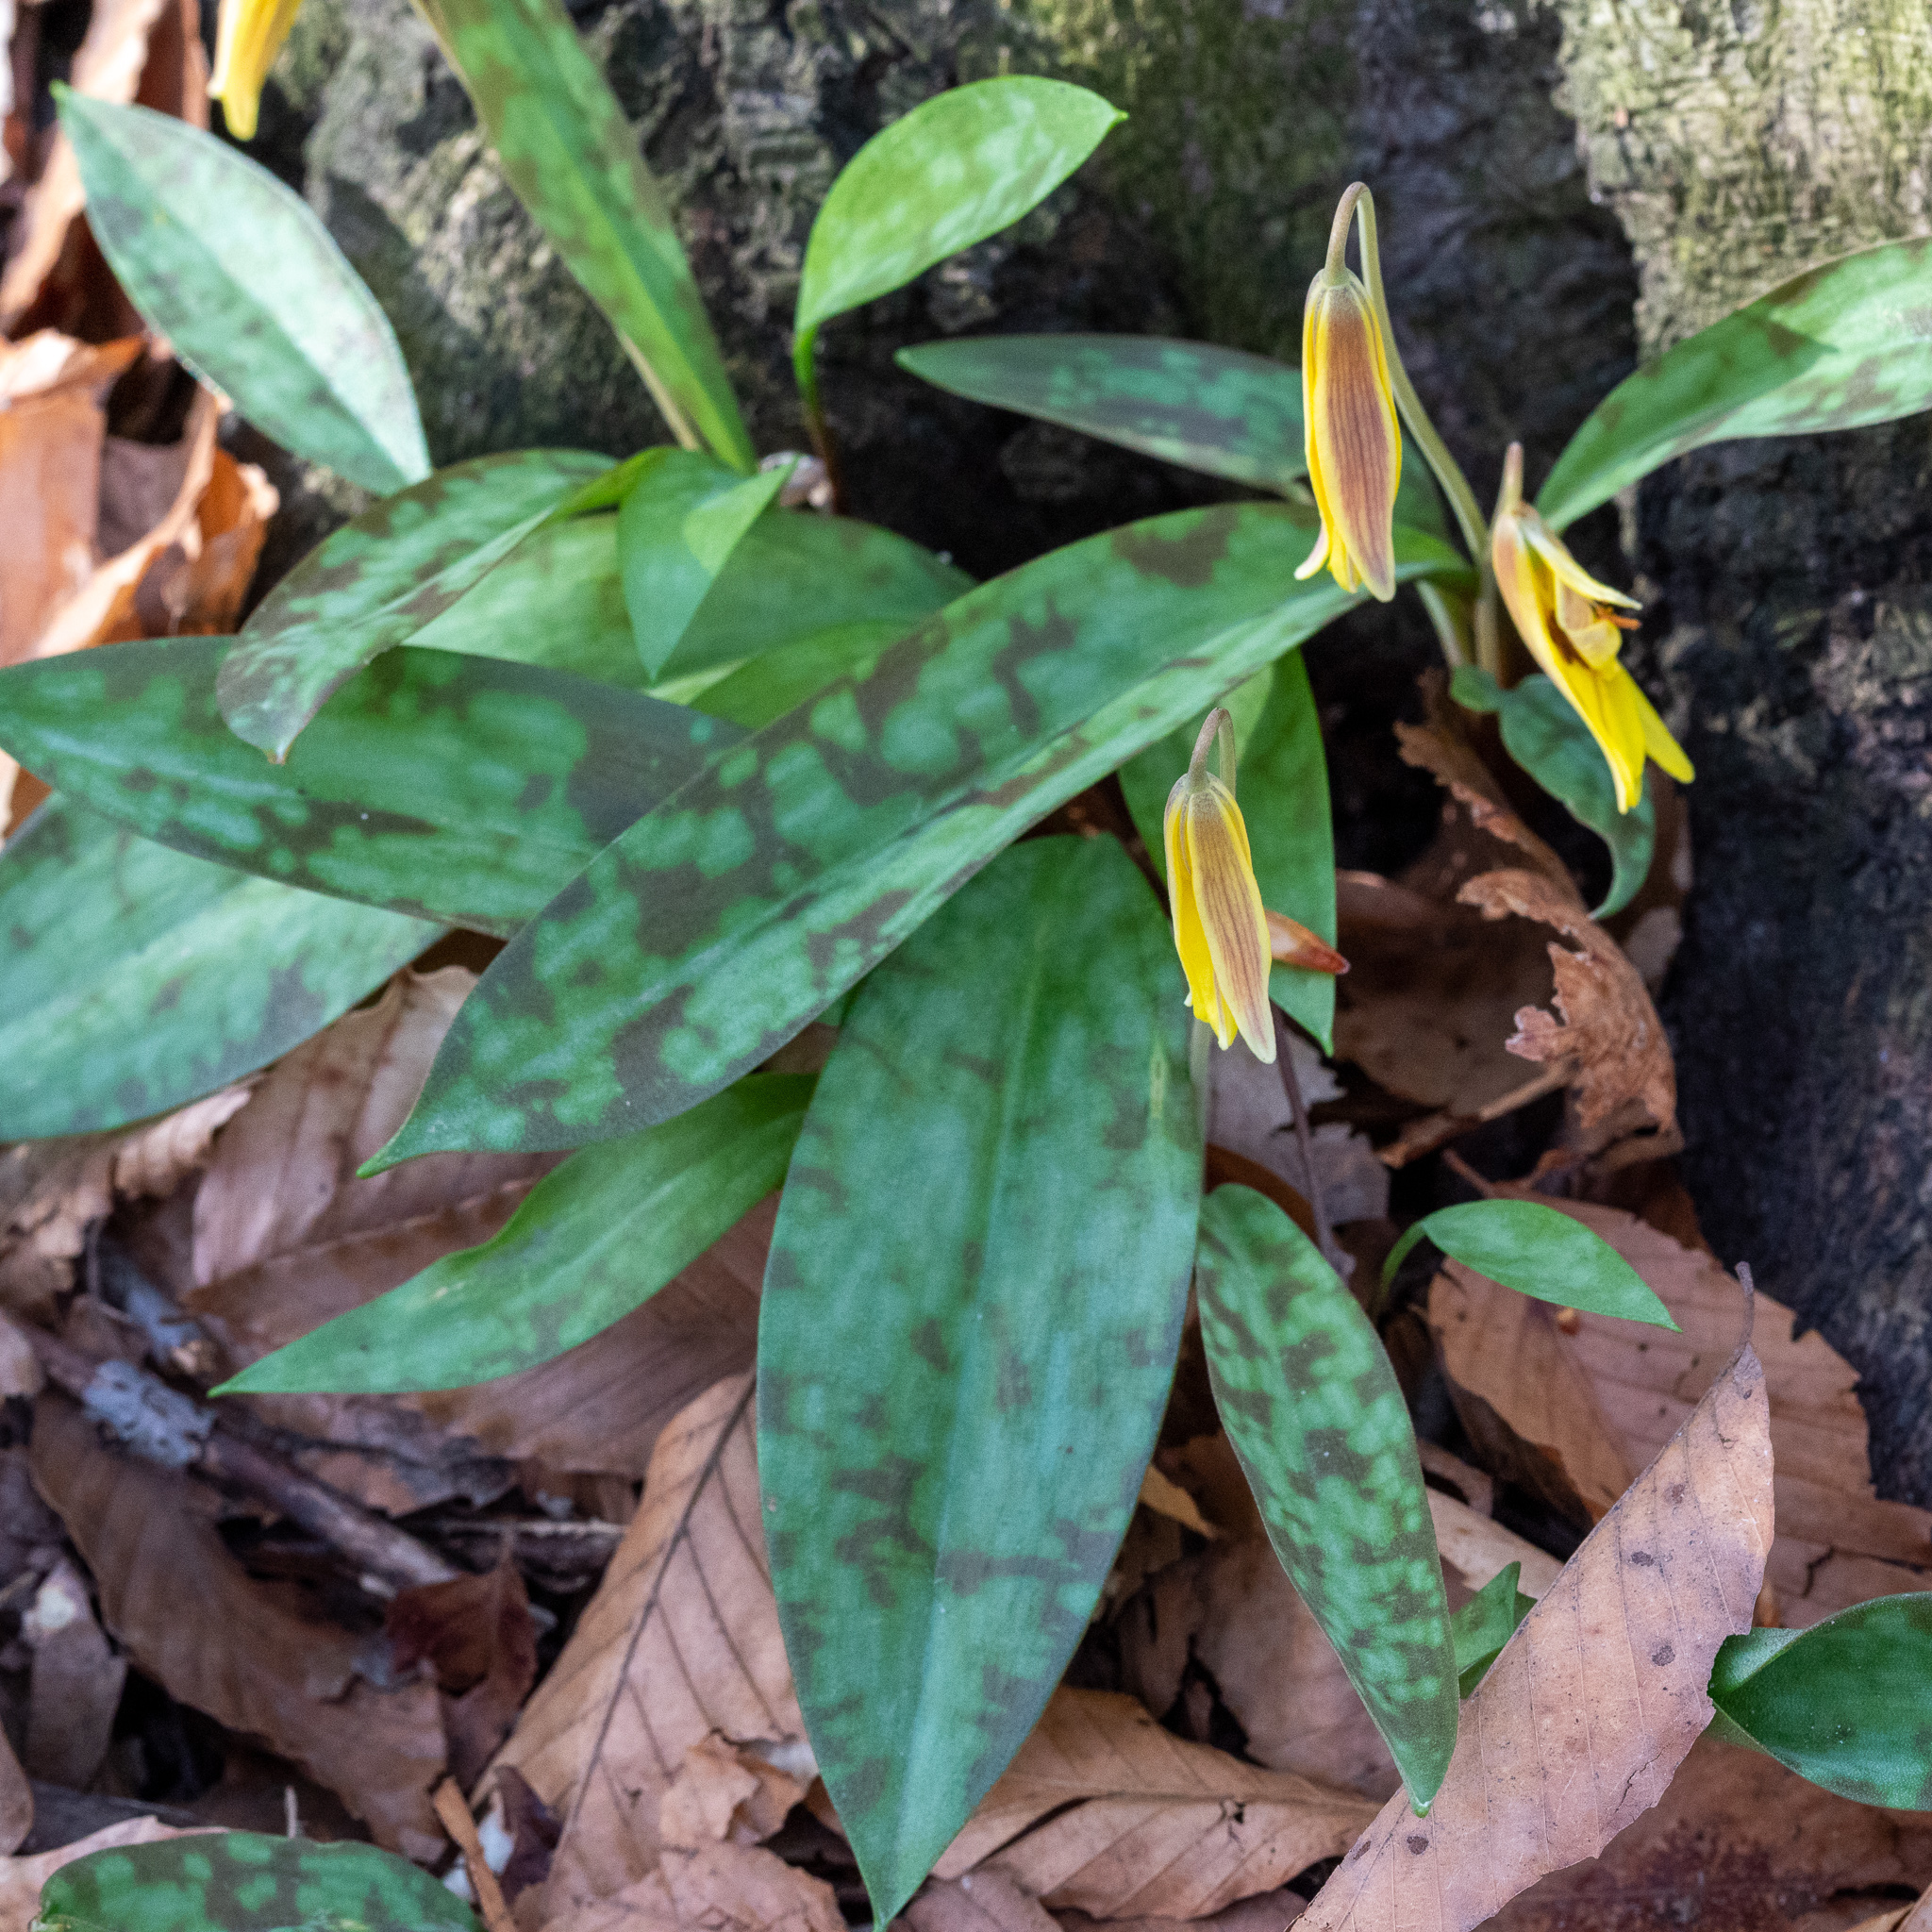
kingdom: Plantae
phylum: Tracheophyta
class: Liliopsida
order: Liliales
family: Liliaceae
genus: Erythronium
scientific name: Erythronium americanum
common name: Yellow adder's-tongue
